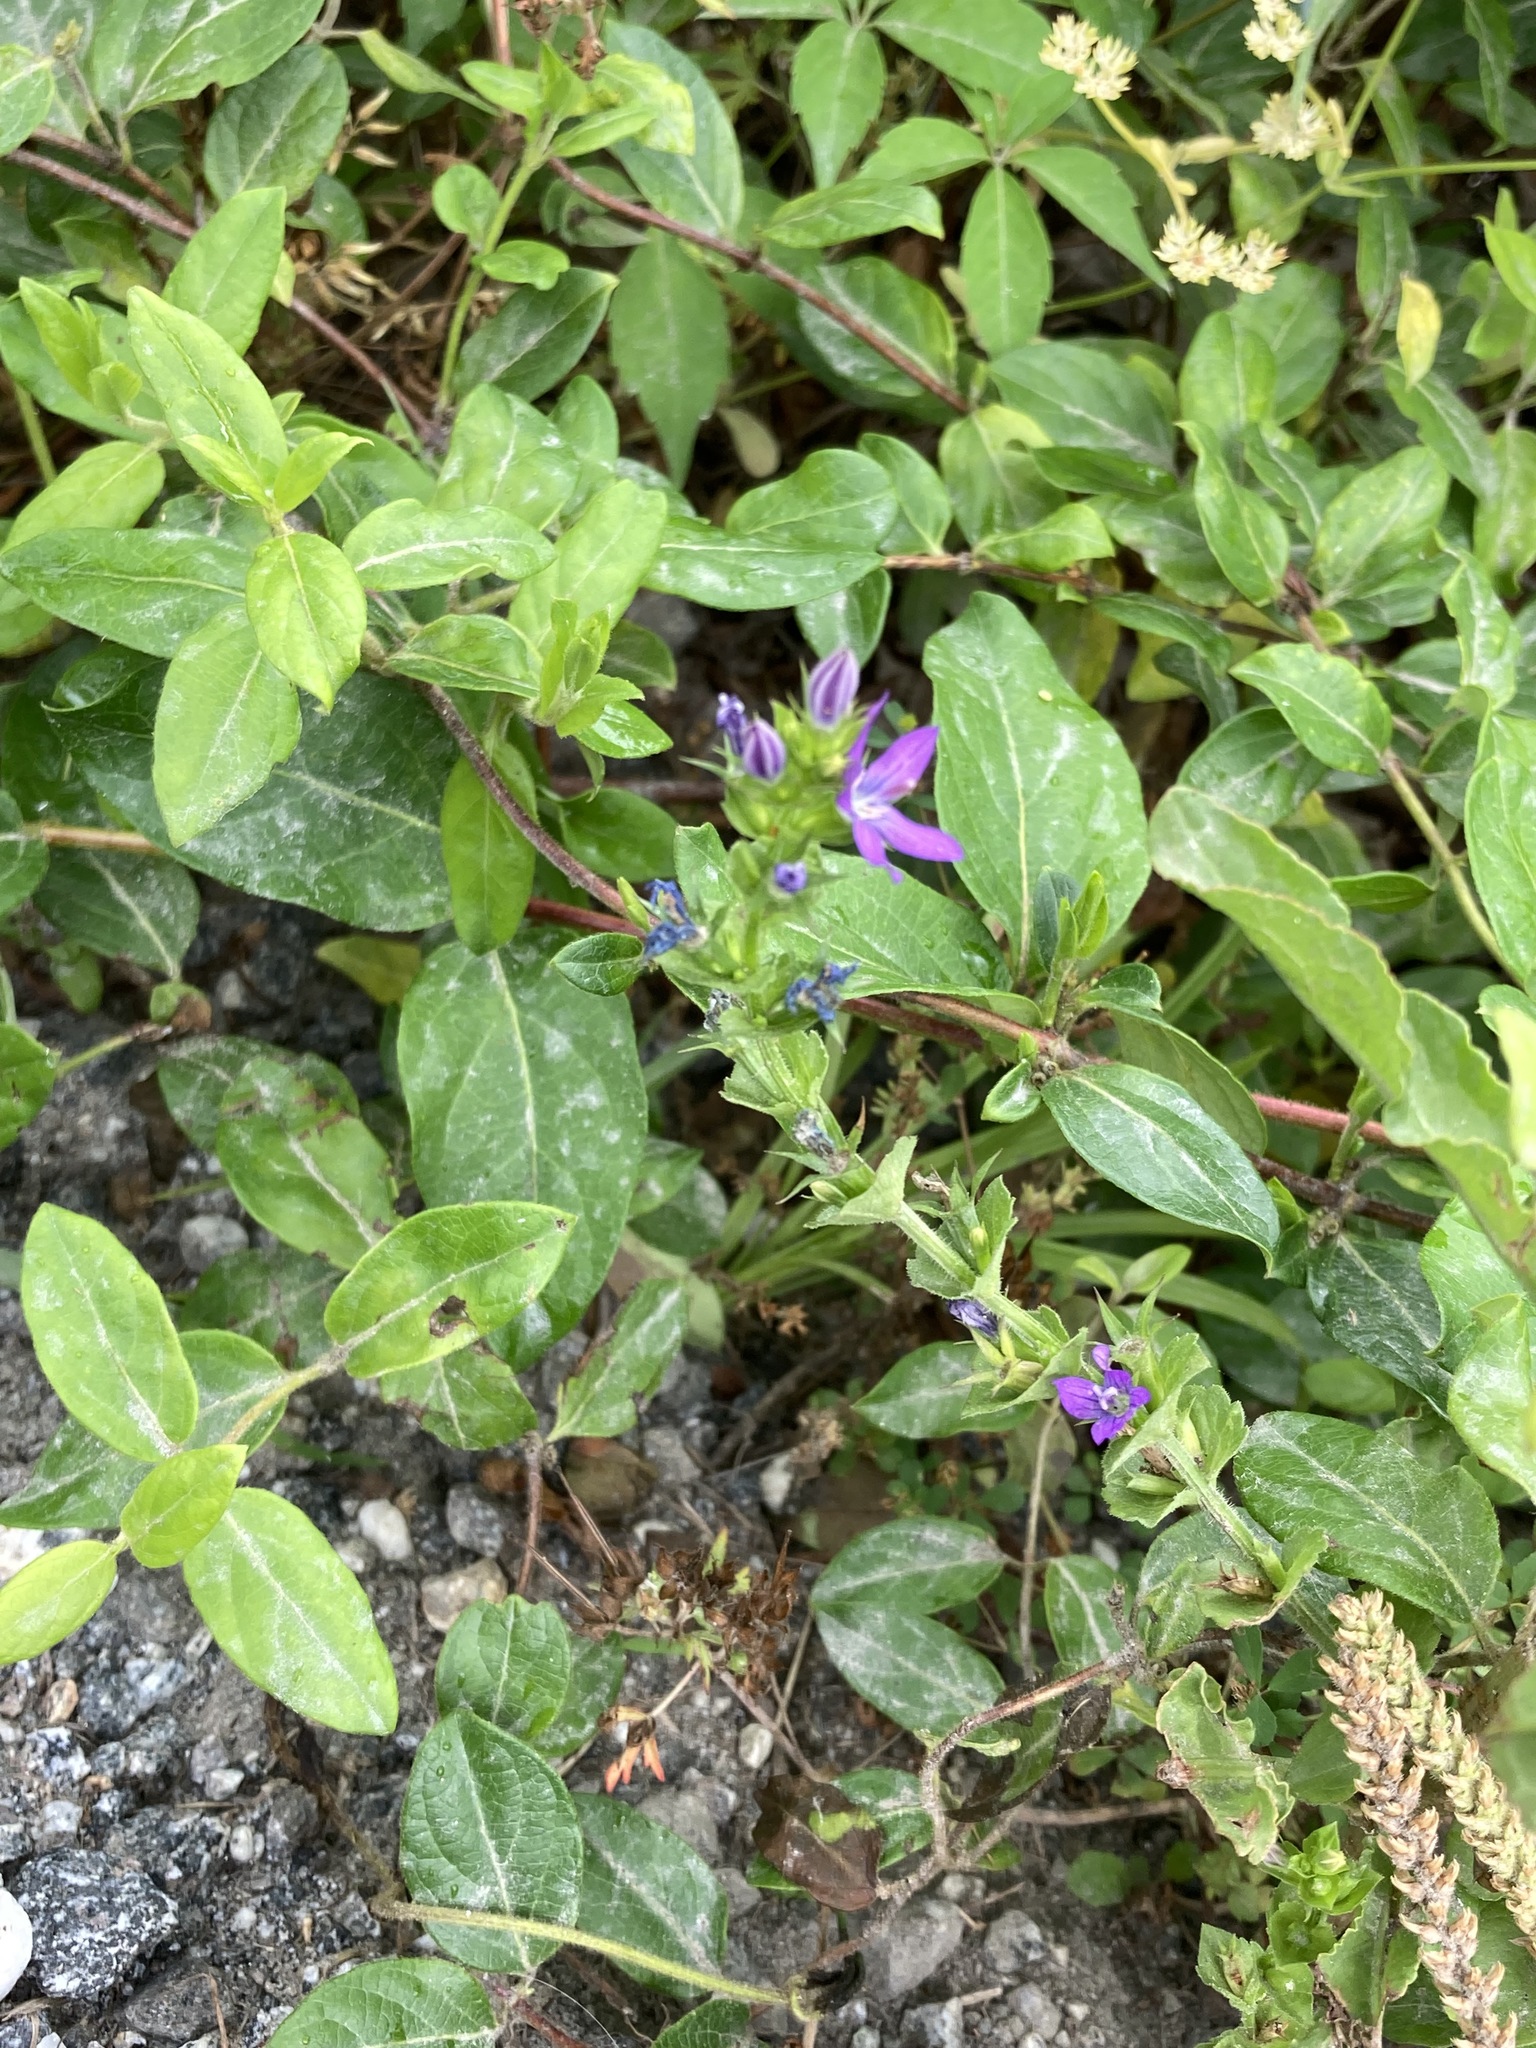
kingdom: Plantae
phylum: Tracheophyta
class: Magnoliopsida
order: Asterales
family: Campanulaceae
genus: Triodanis
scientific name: Triodanis perfoliata
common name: Clasping venus' looking-glass
